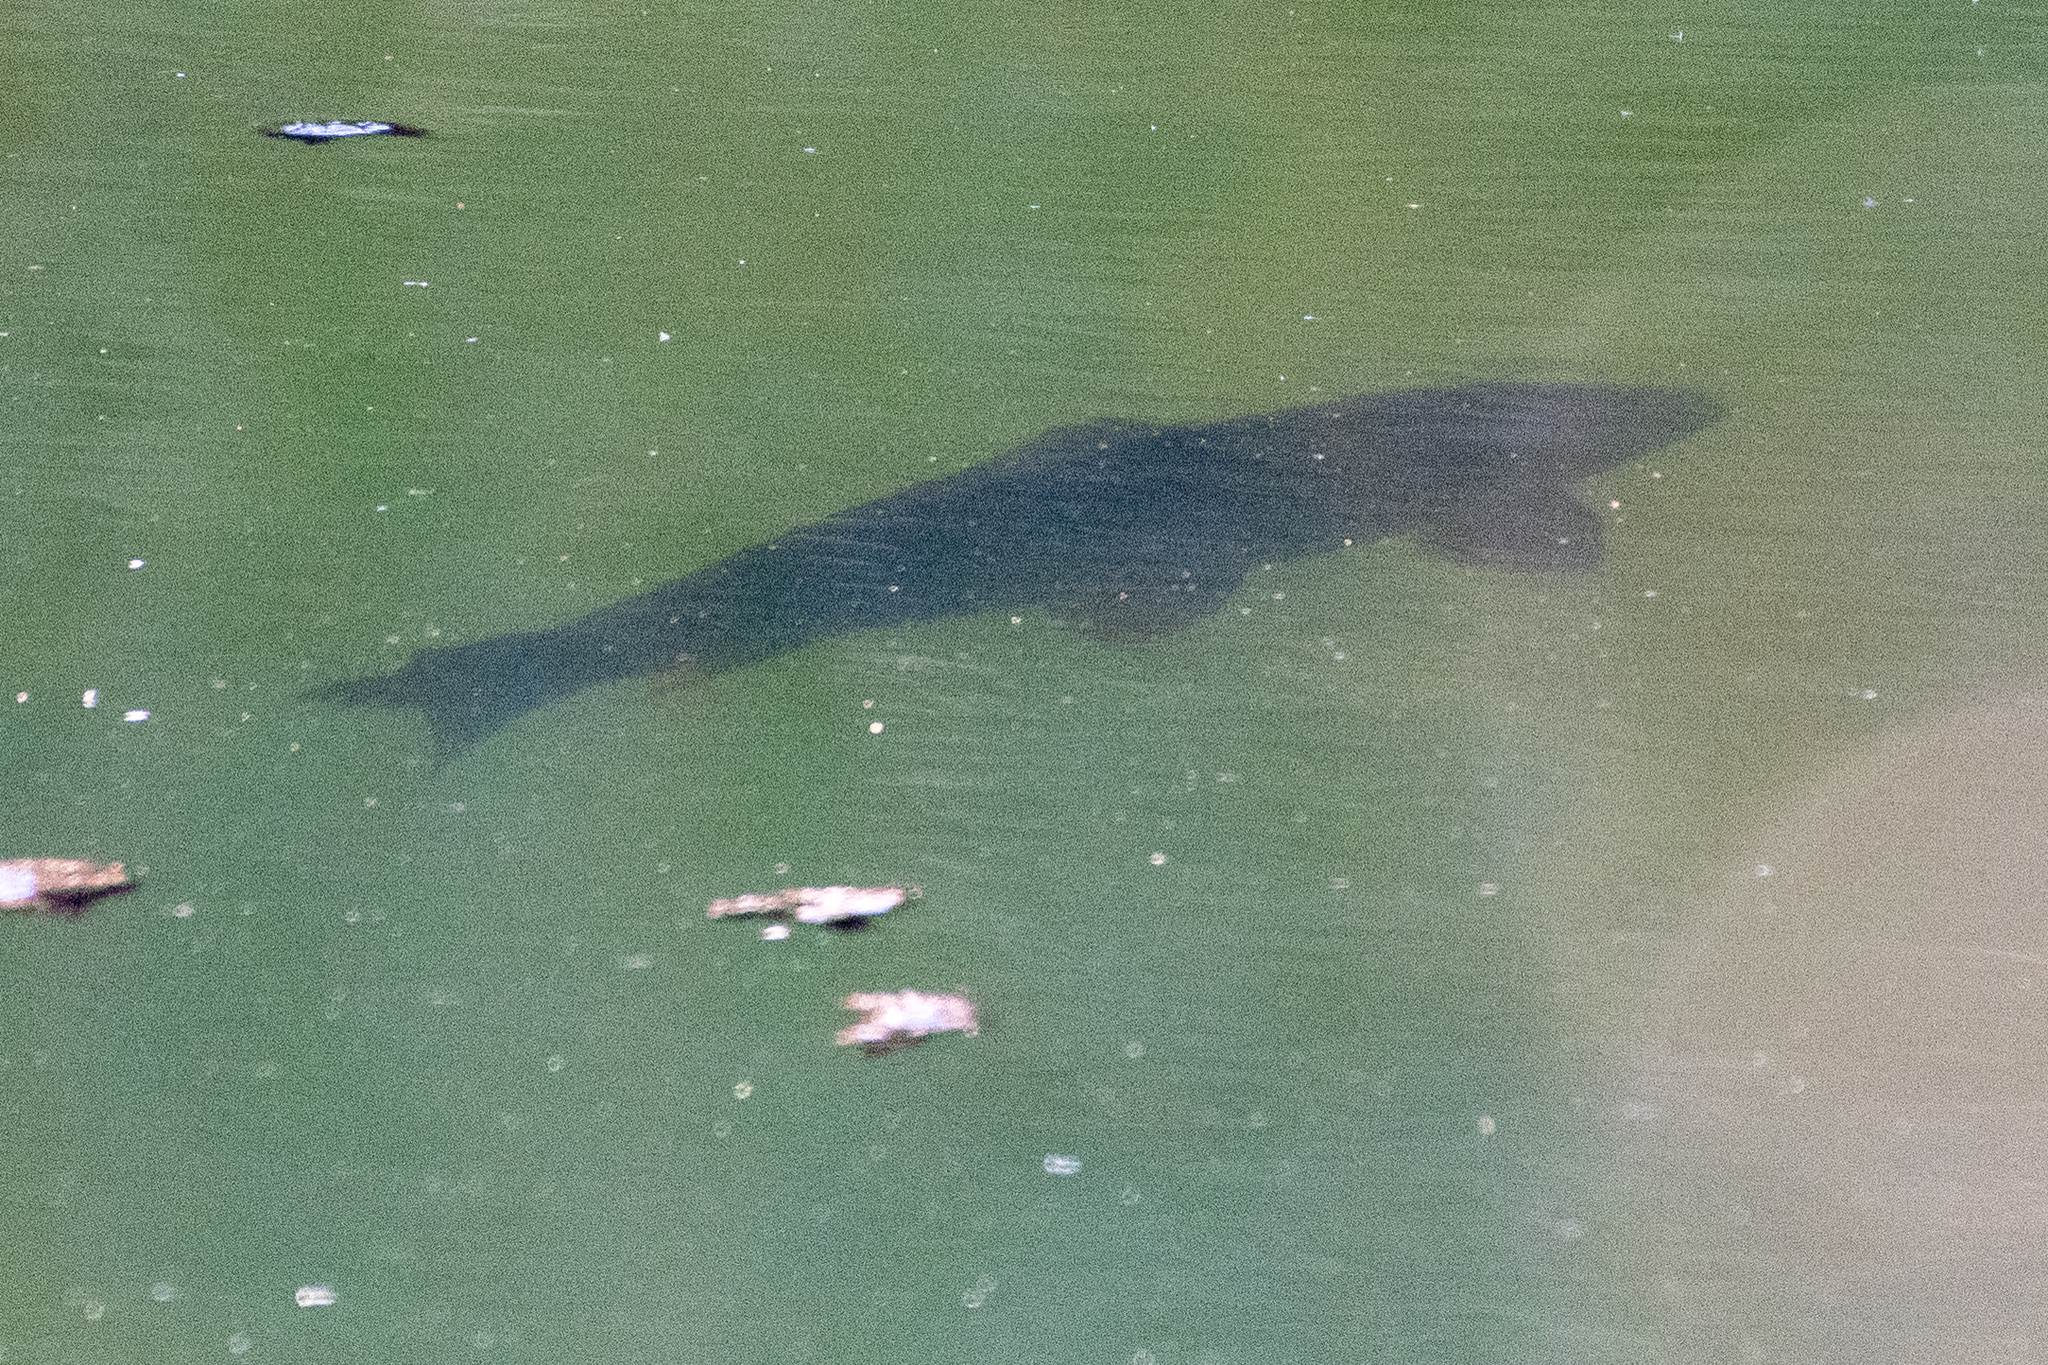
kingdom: Animalia
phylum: Chordata
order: Cypriniformes
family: Cyprinidae
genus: Cyprinus
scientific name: Cyprinus carpio
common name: Common carp
